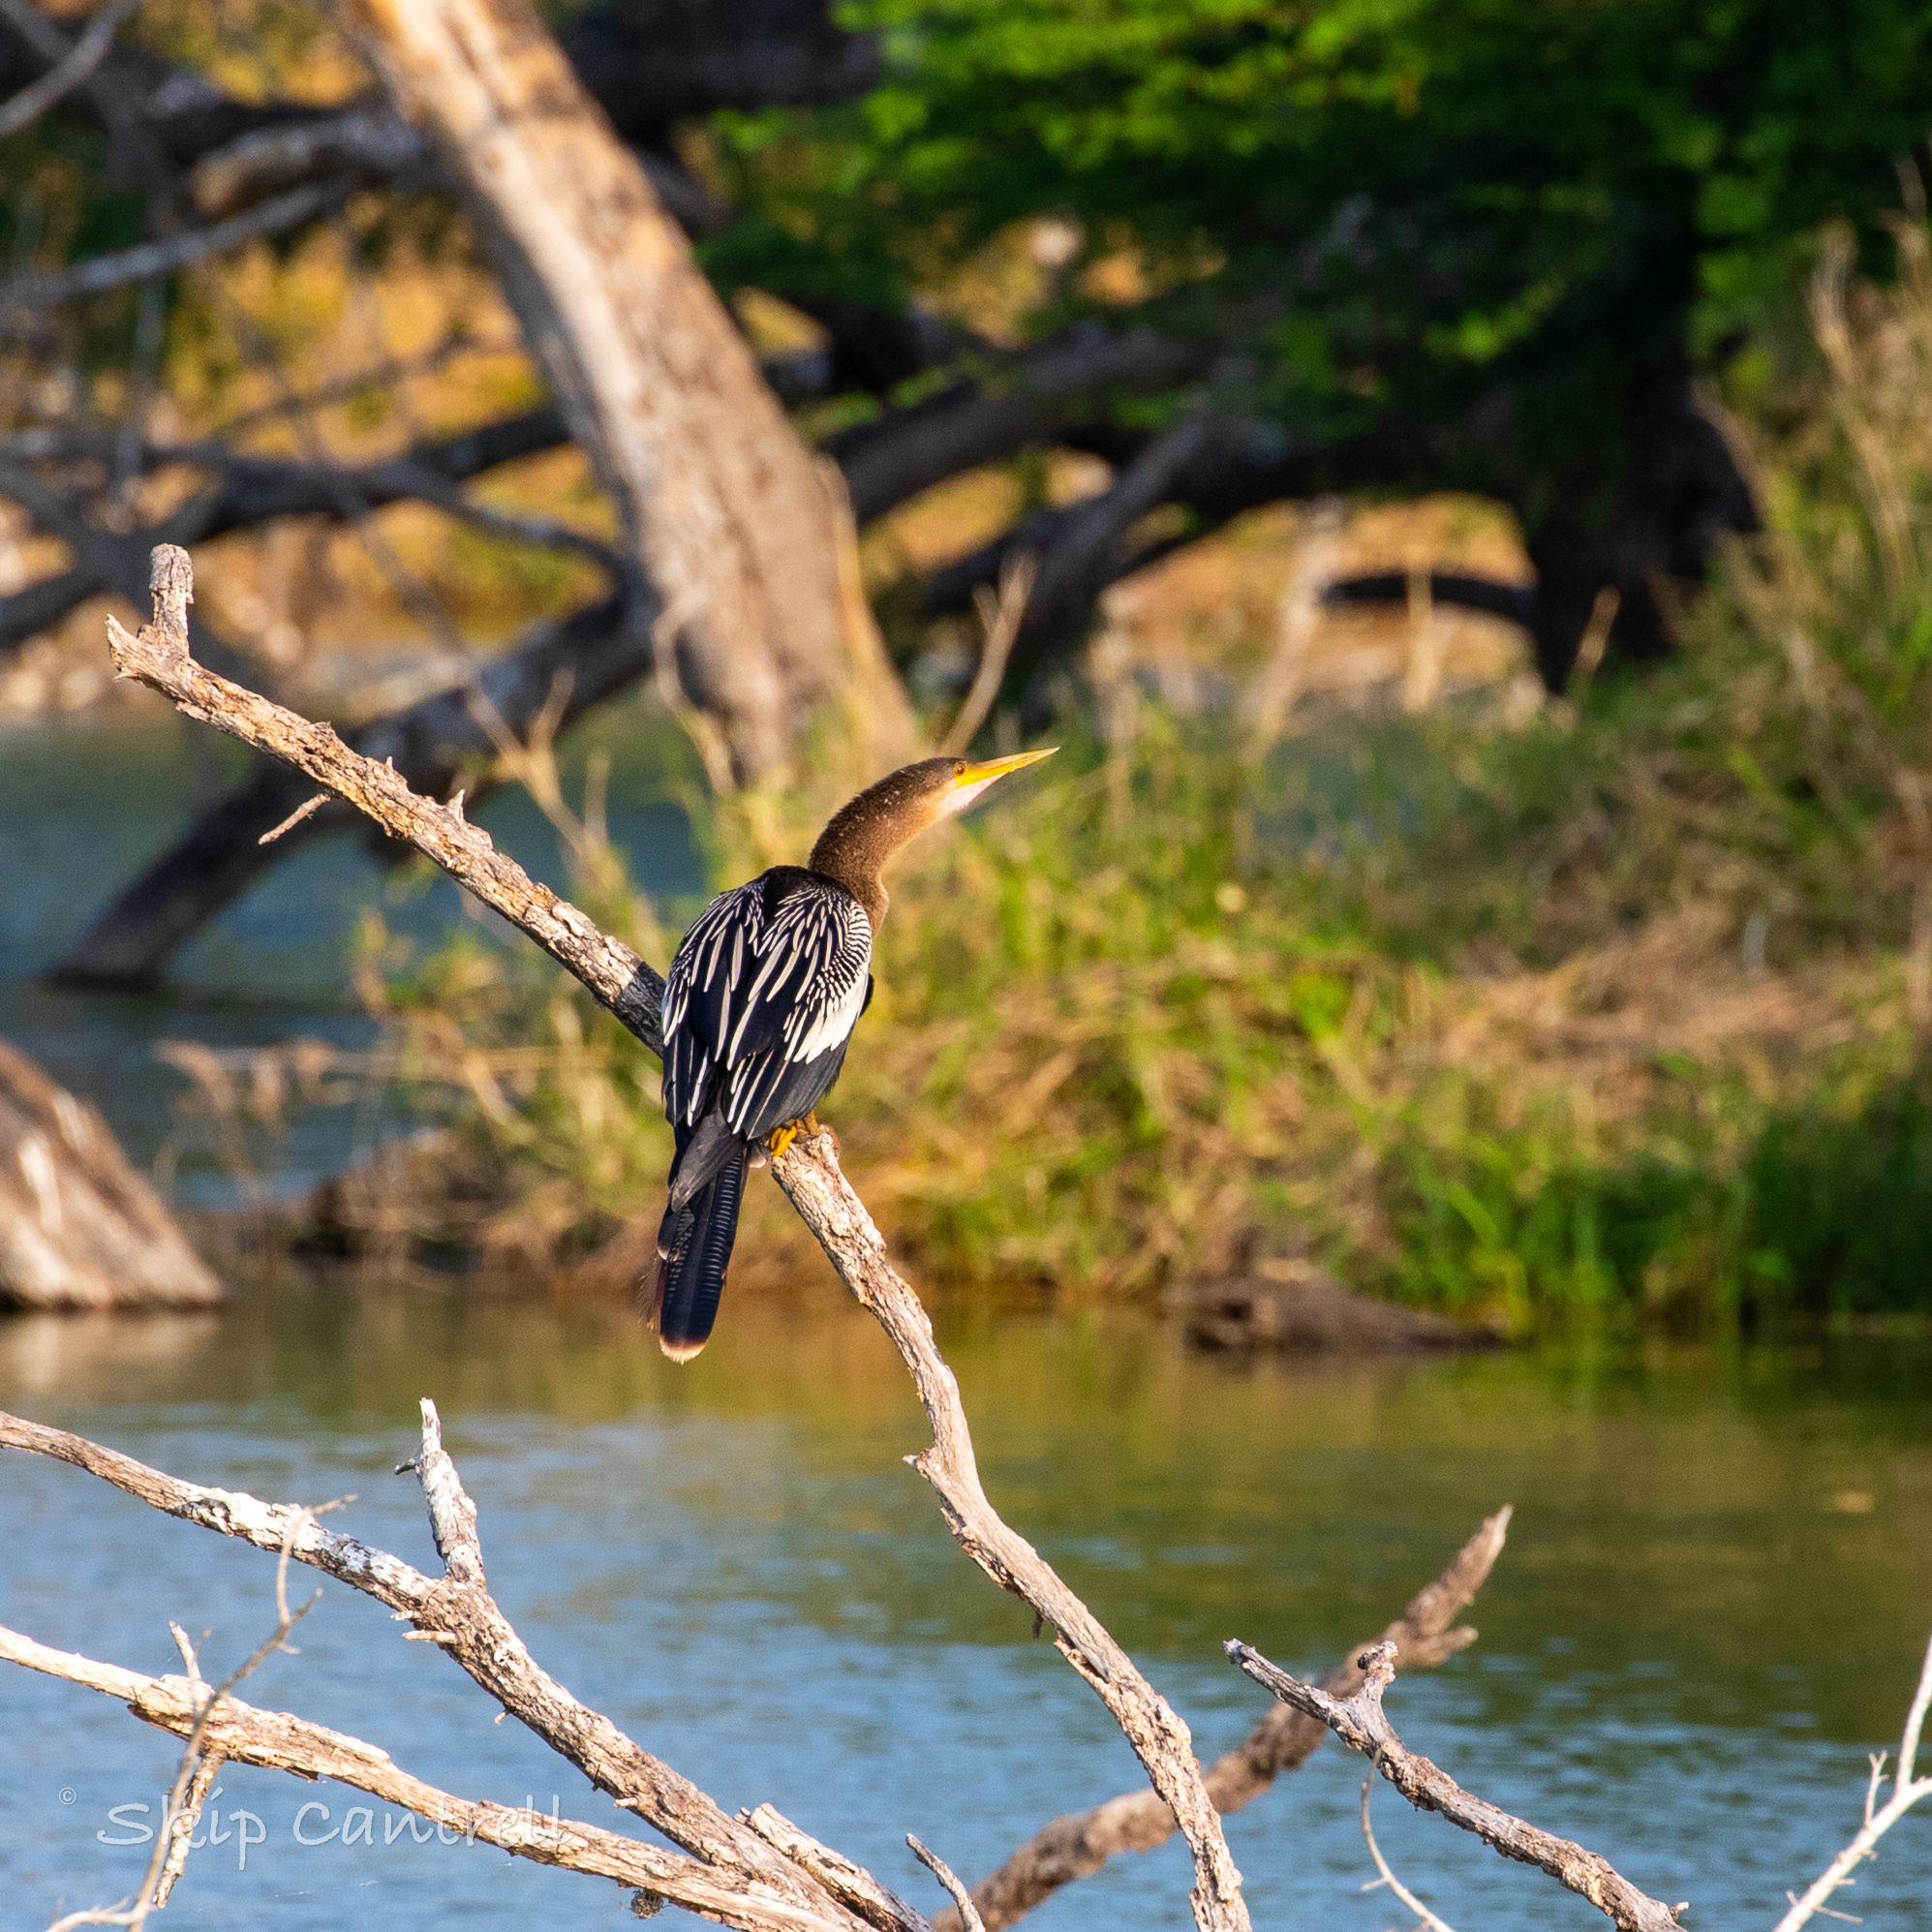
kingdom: Animalia
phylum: Chordata
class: Aves
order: Suliformes
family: Anhingidae
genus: Anhinga
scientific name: Anhinga anhinga
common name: Anhinga
